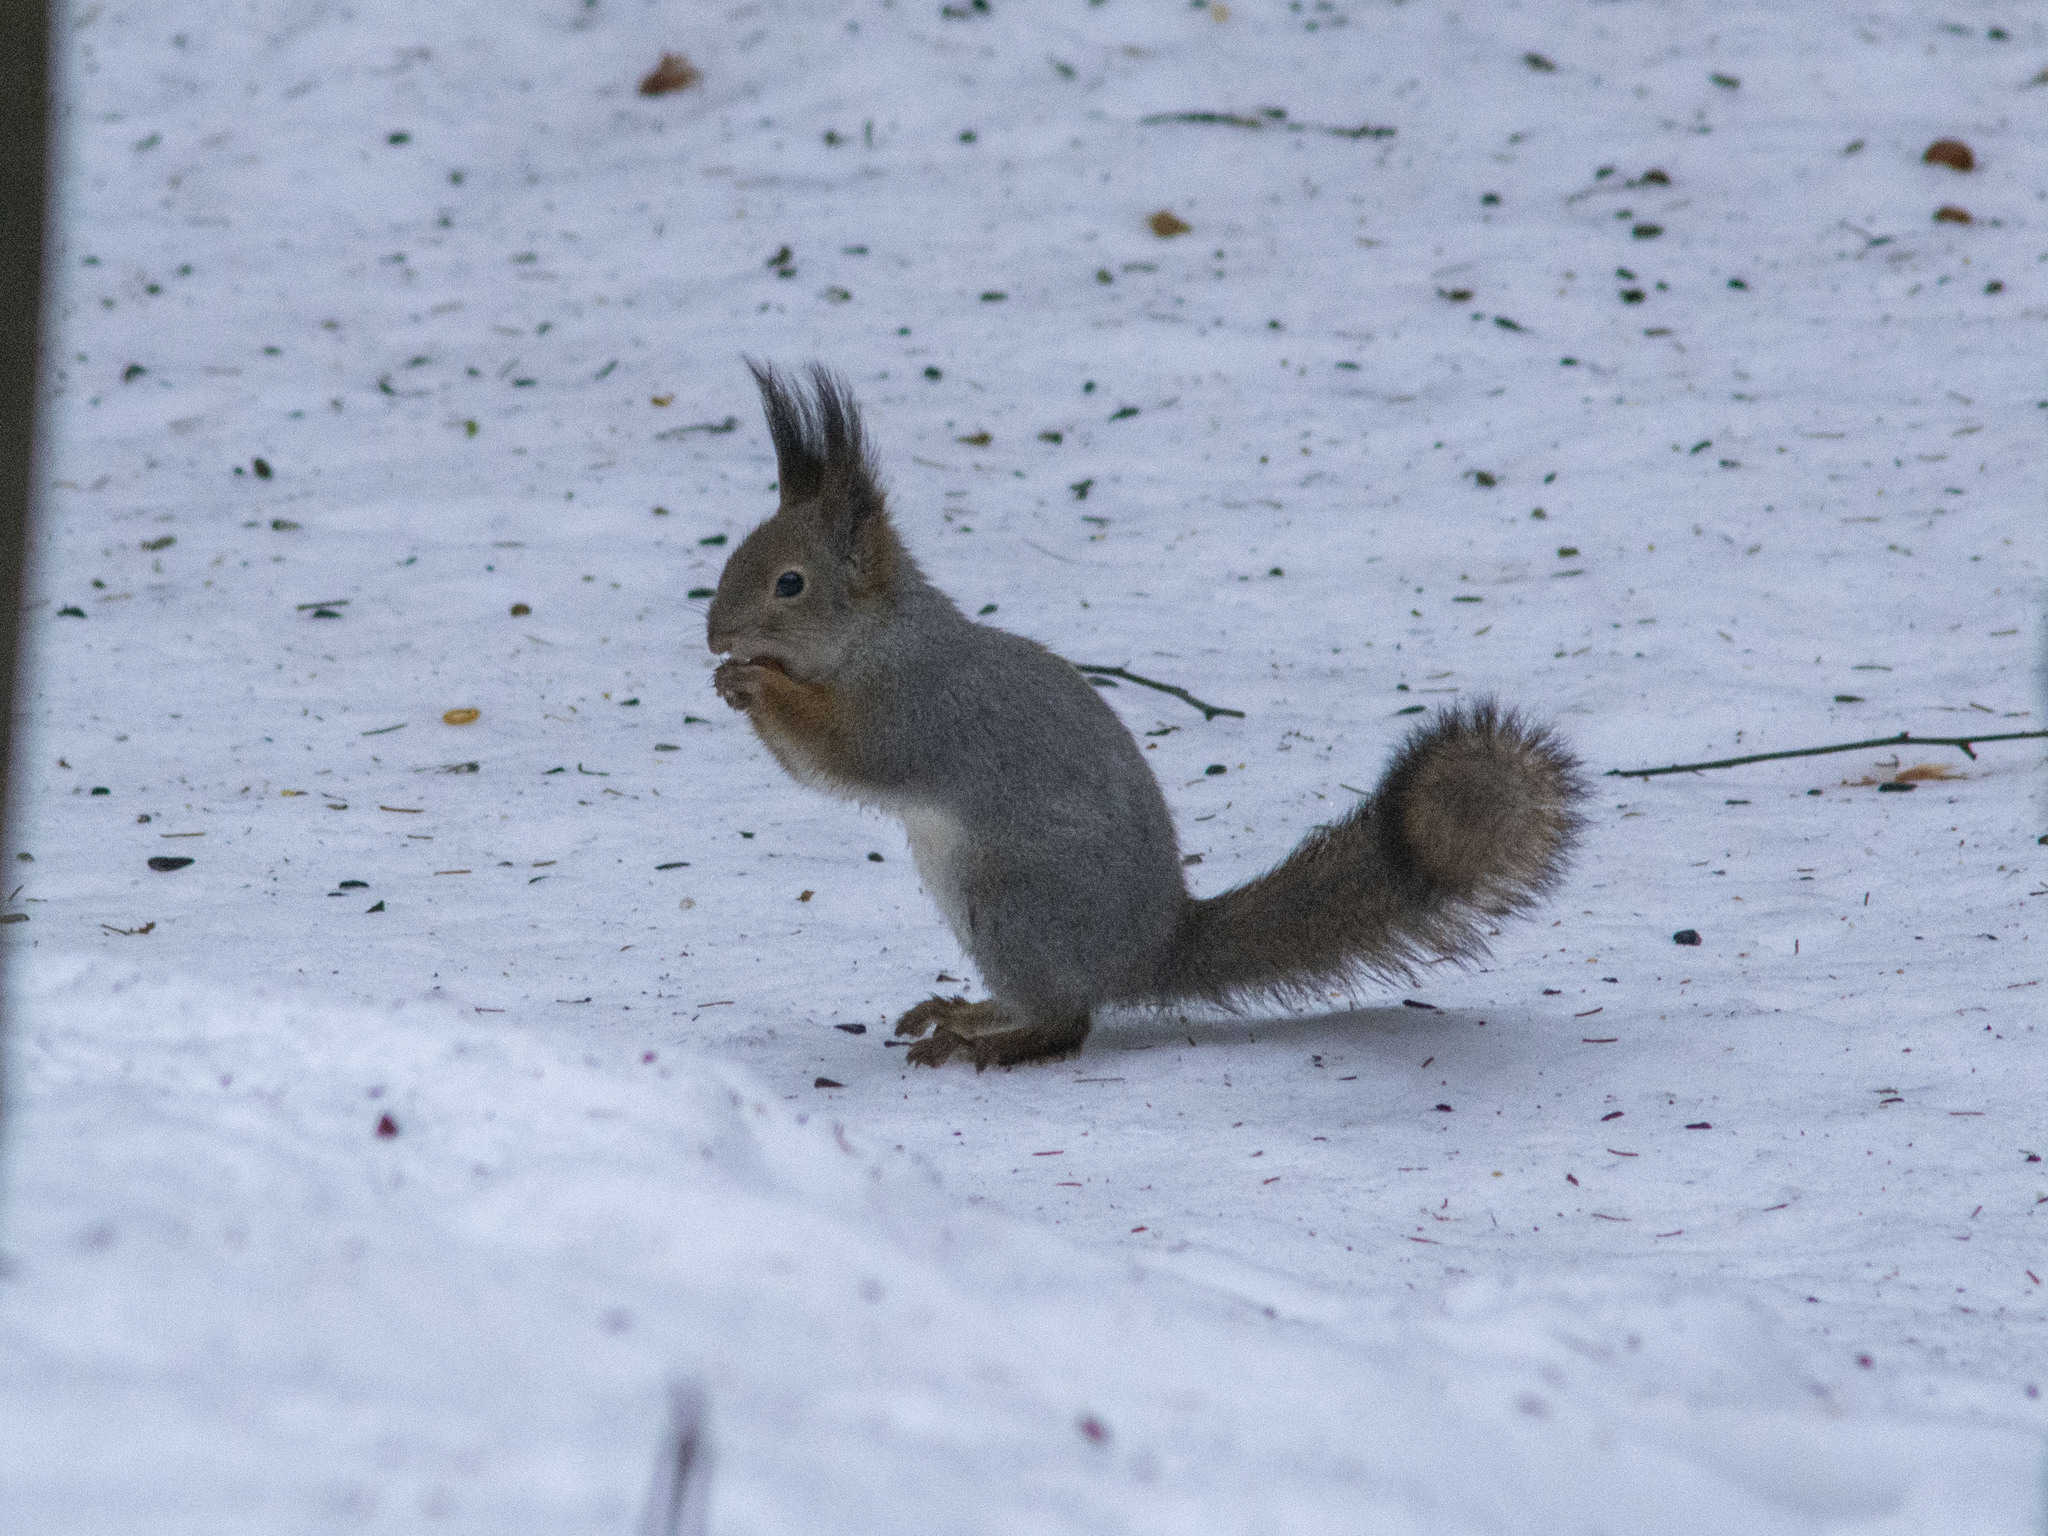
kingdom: Animalia
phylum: Chordata
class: Mammalia
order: Rodentia
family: Sciuridae
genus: Sciurus
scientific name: Sciurus vulgaris
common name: Eurasian red squirrel
